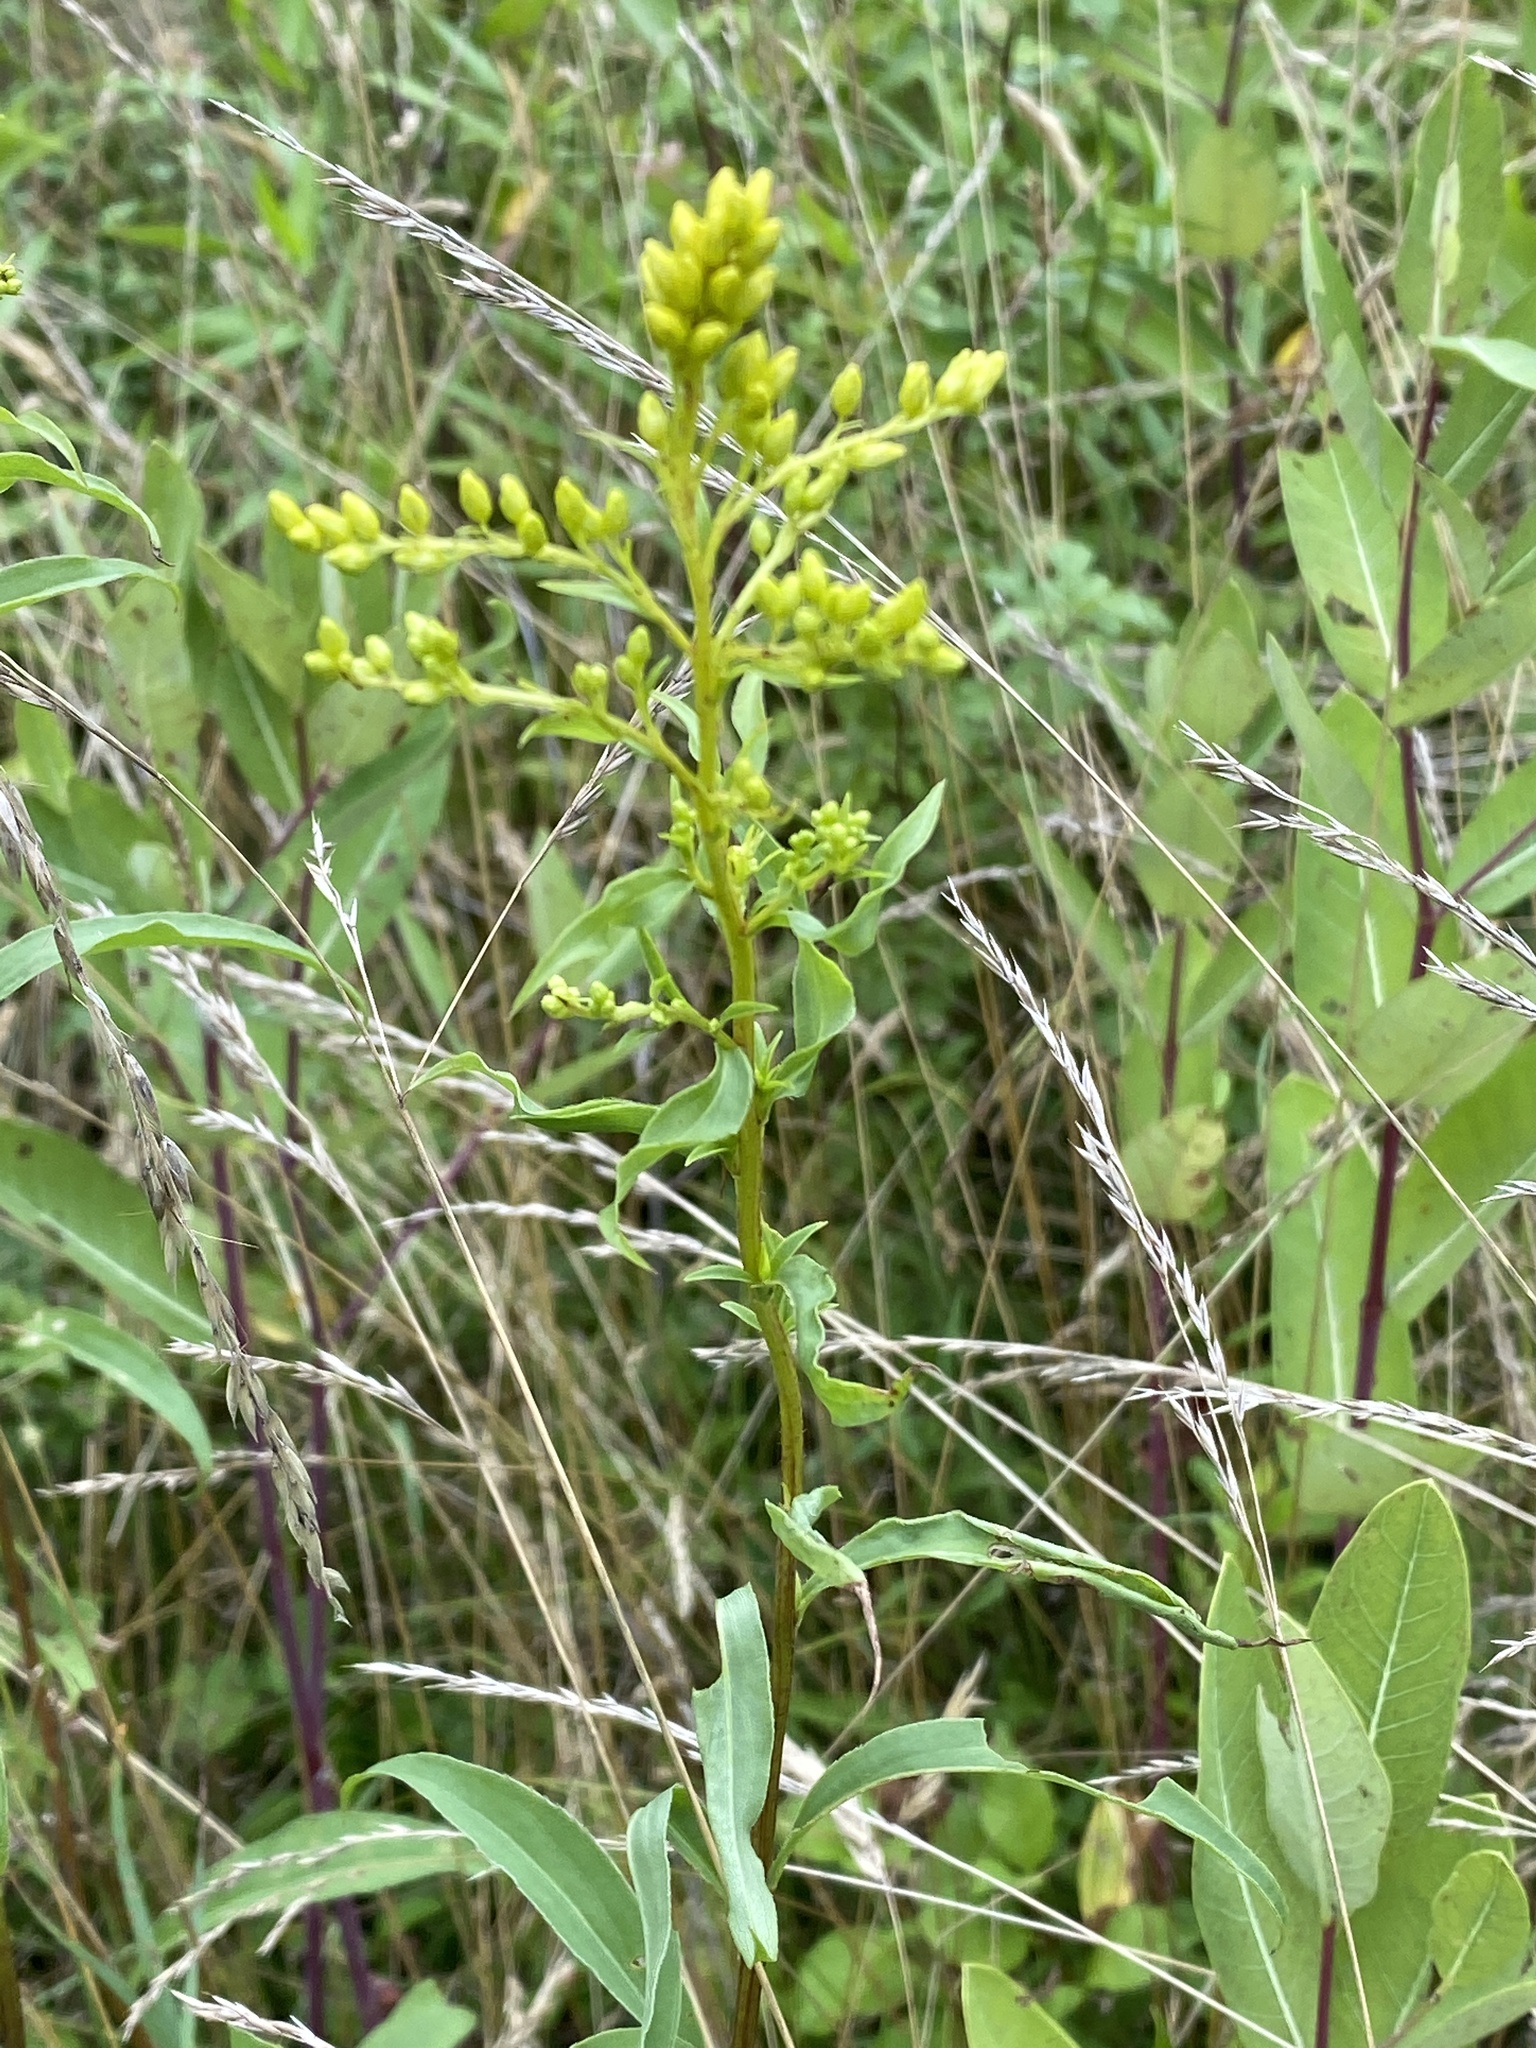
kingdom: Plantae
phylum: Tracheophyta
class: Magnoliopsida
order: Asterales
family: Asteraceae
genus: Solidago
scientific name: Solidago juncea
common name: Early goldenrod
